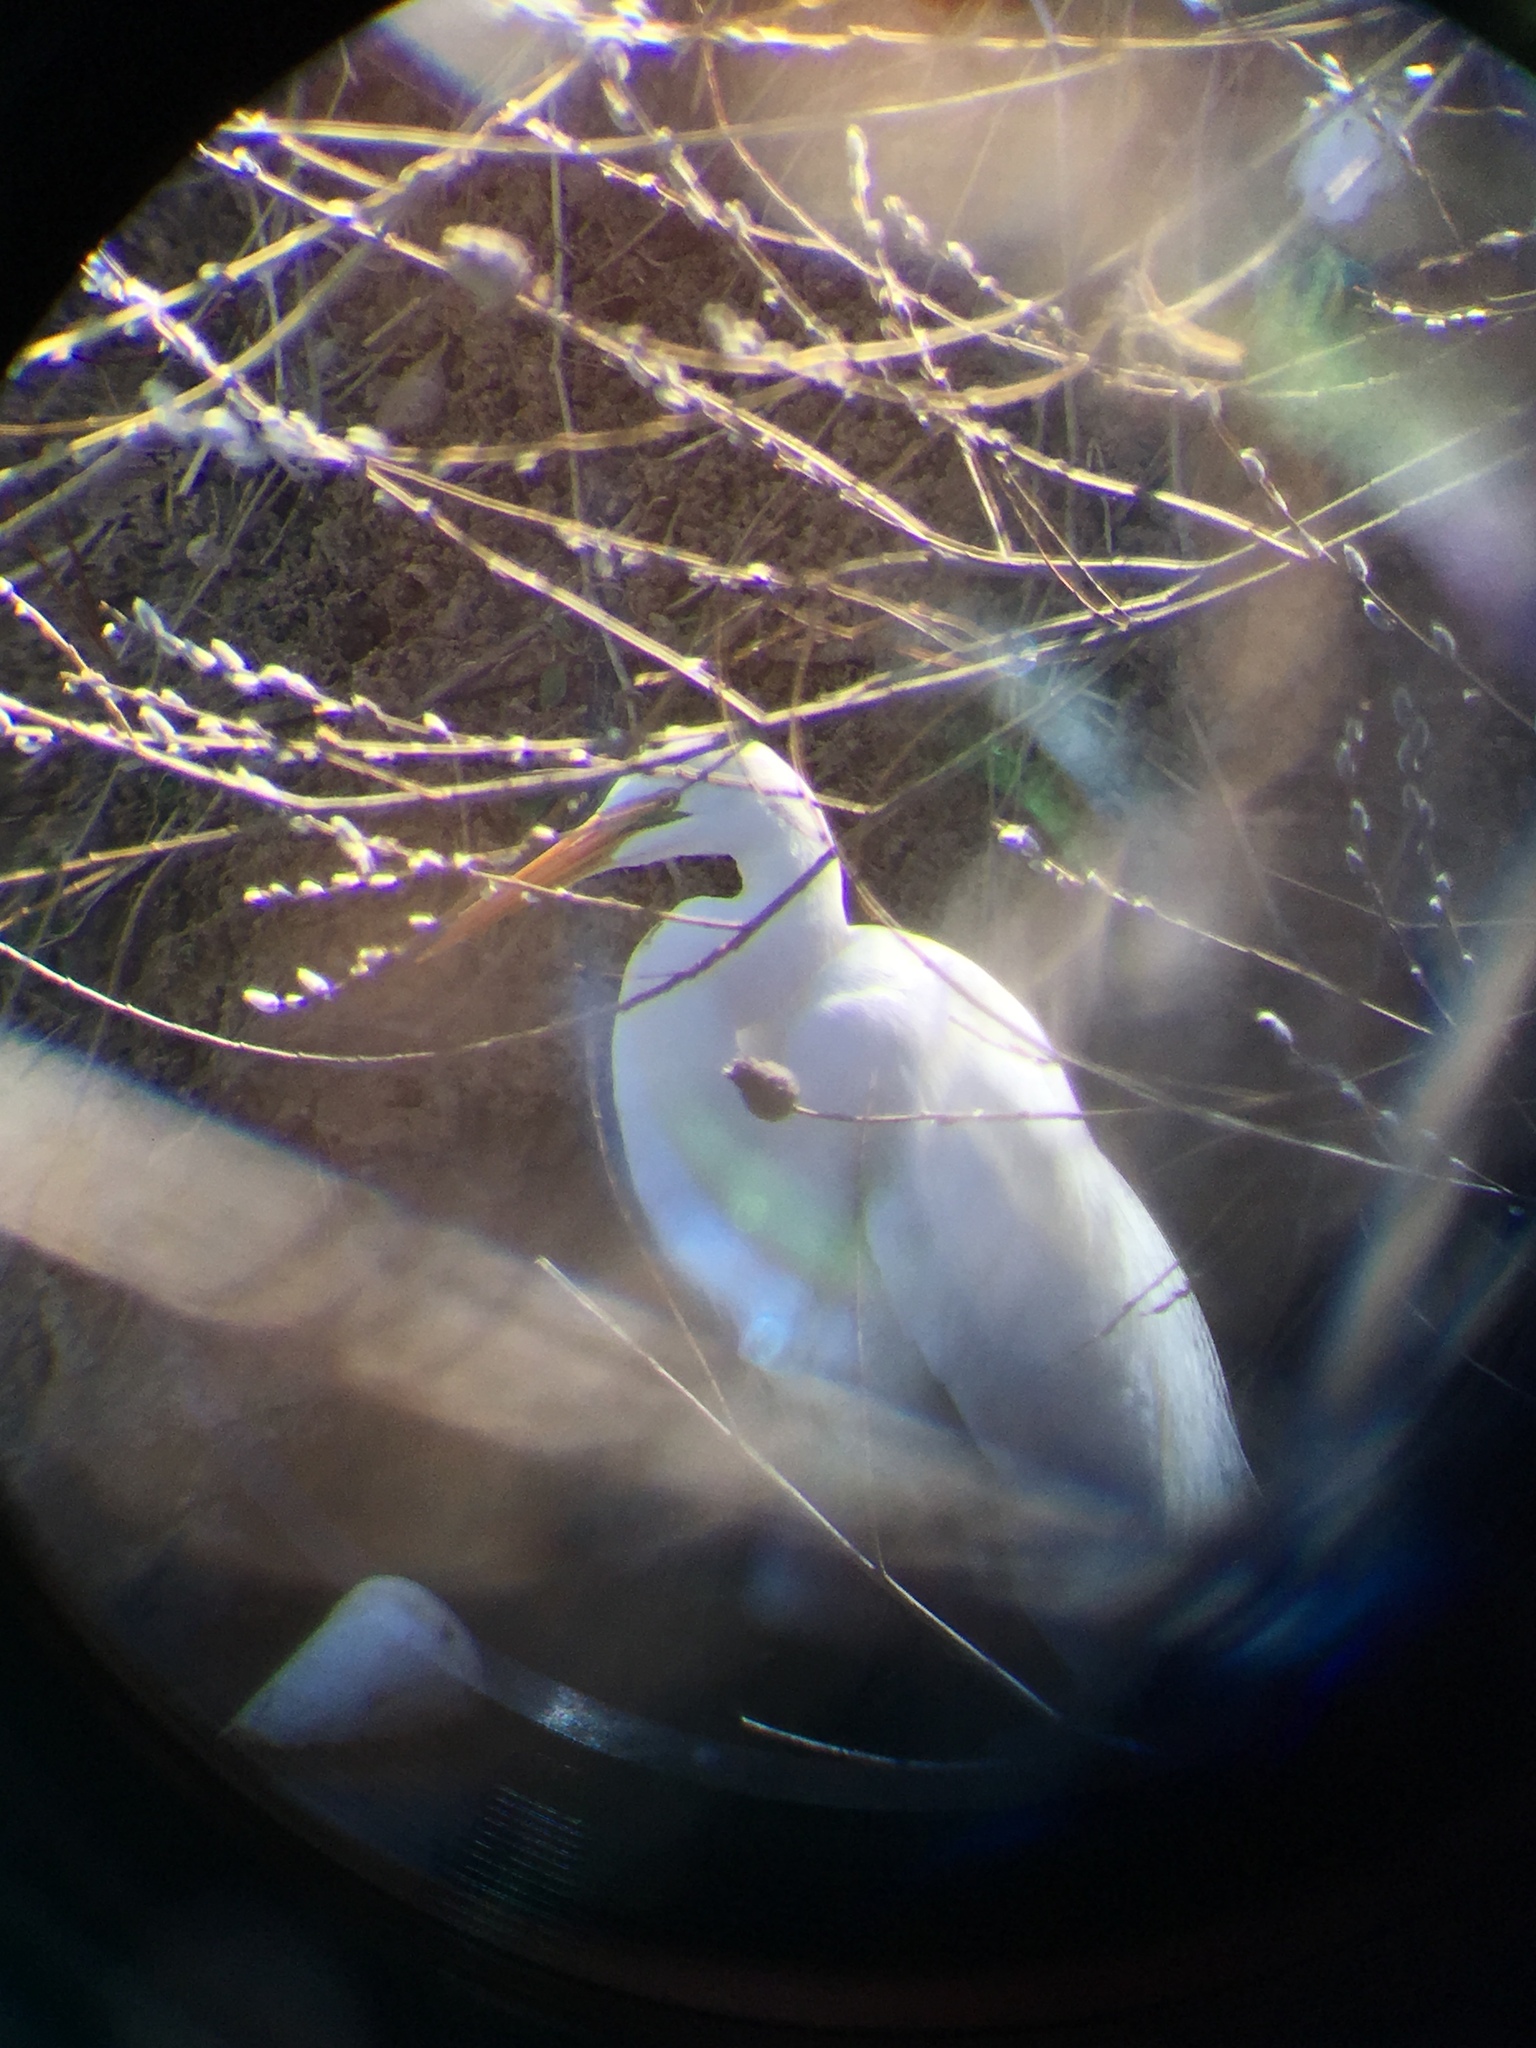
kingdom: Animalia
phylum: Chordata
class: Aves
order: Pelecaniformes
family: Ardeidae
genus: Ardea
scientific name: Ardea alba
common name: Great egret
